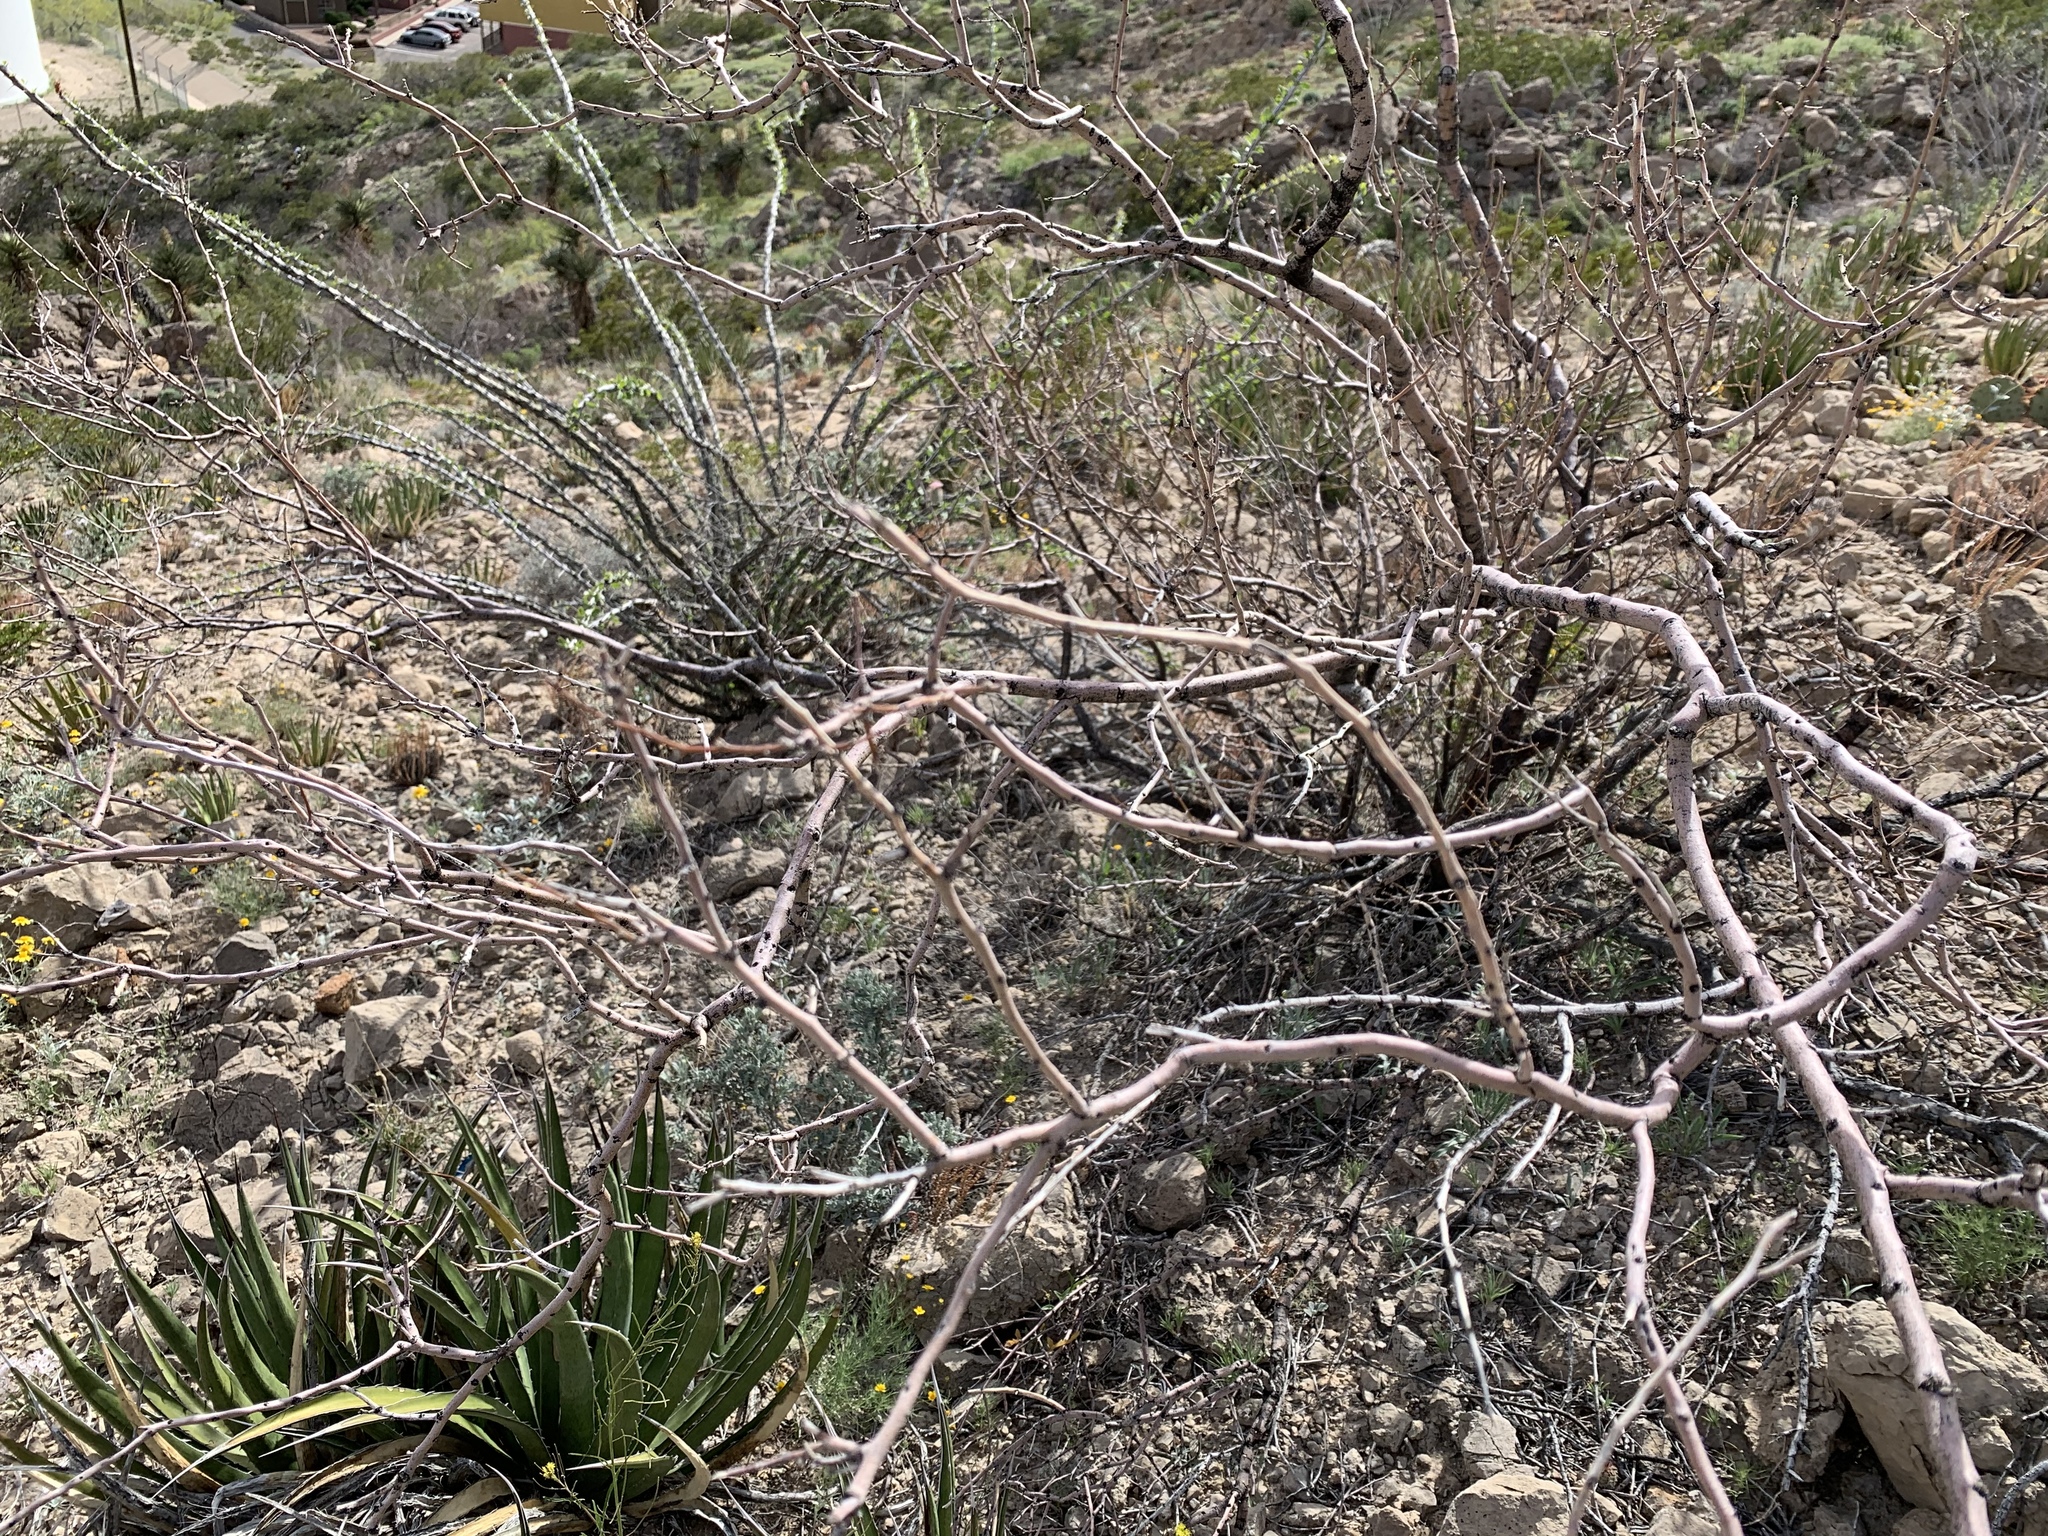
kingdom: Plantae
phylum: Tracheophyta
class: Magnoliopsida
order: Fabales
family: Fabaceae
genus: Vachellia
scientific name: Vachellia constricta
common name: Mescat acacia
